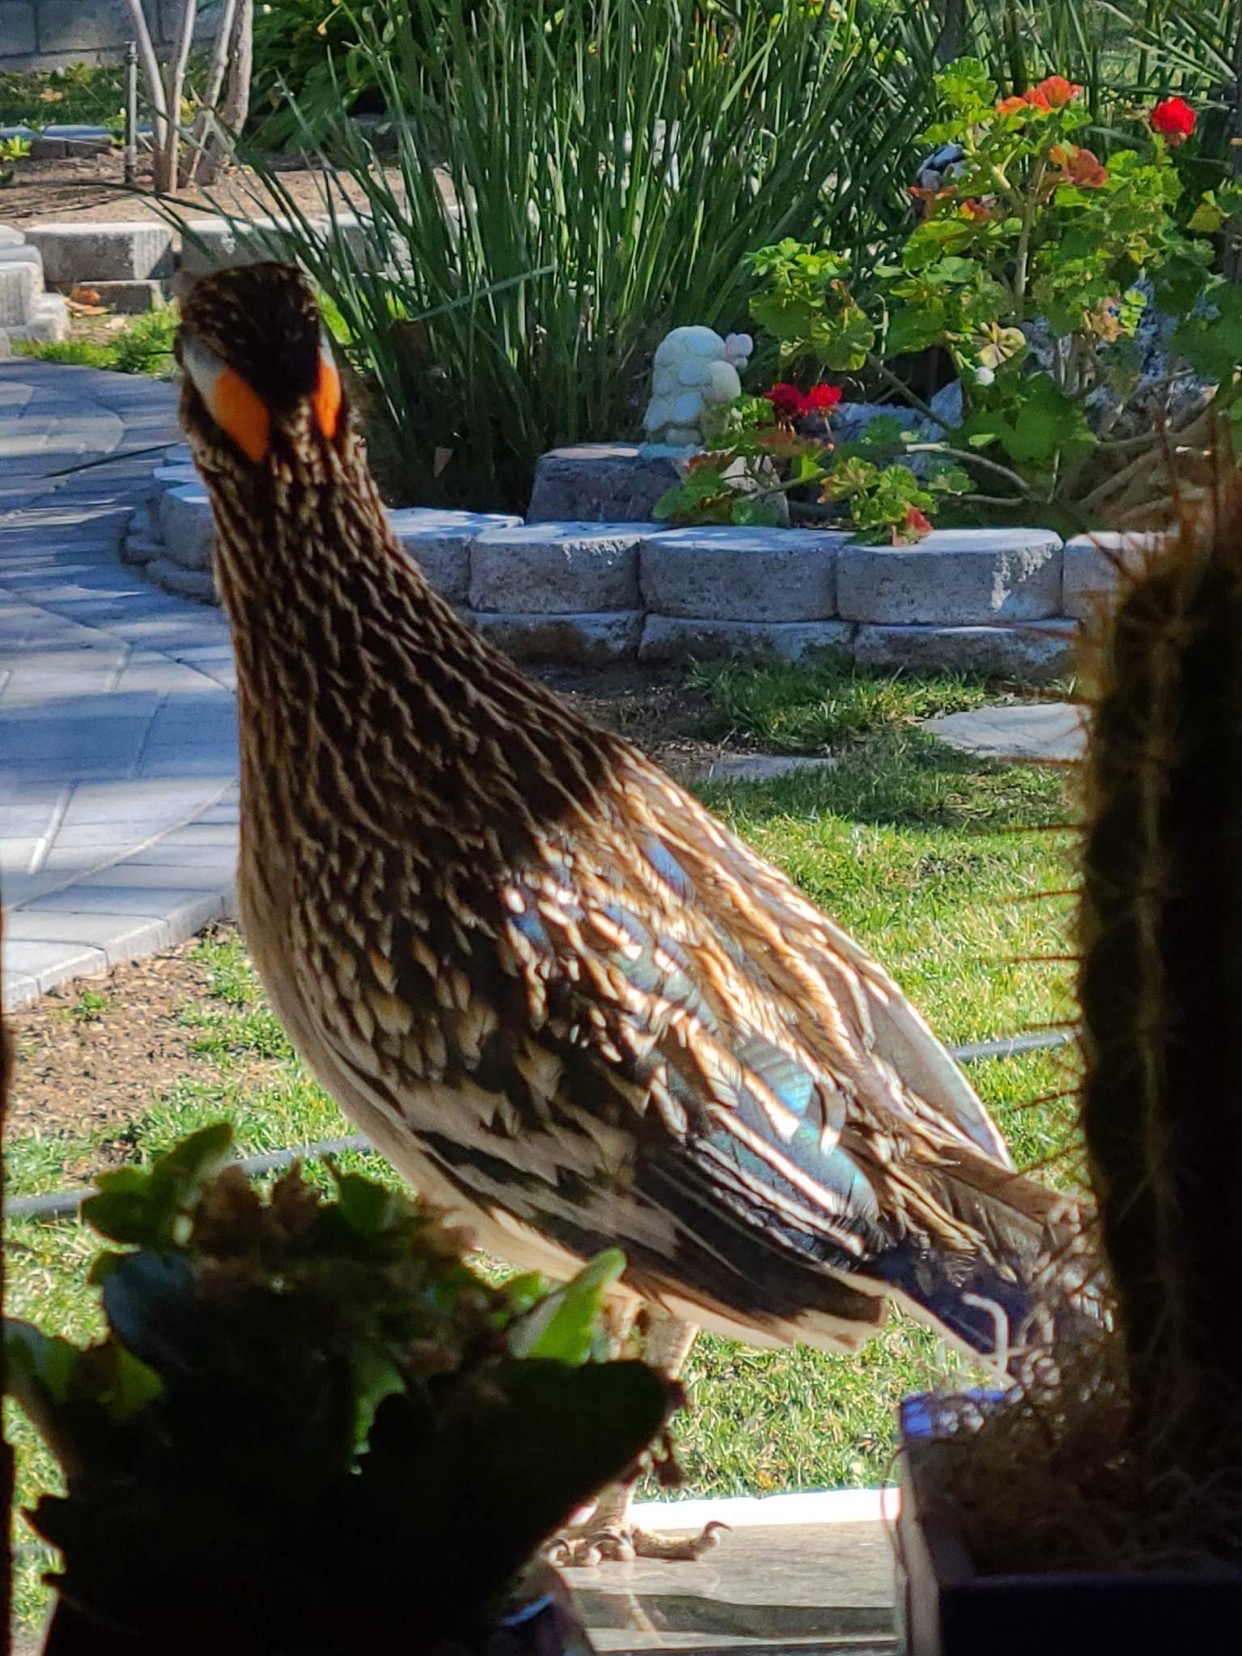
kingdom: Animalia
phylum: Chordata
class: Aves
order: Cuculiformes
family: Cuculidae
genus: Geococcyx
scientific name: Geococcyx californianus
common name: Greater roadrunner
